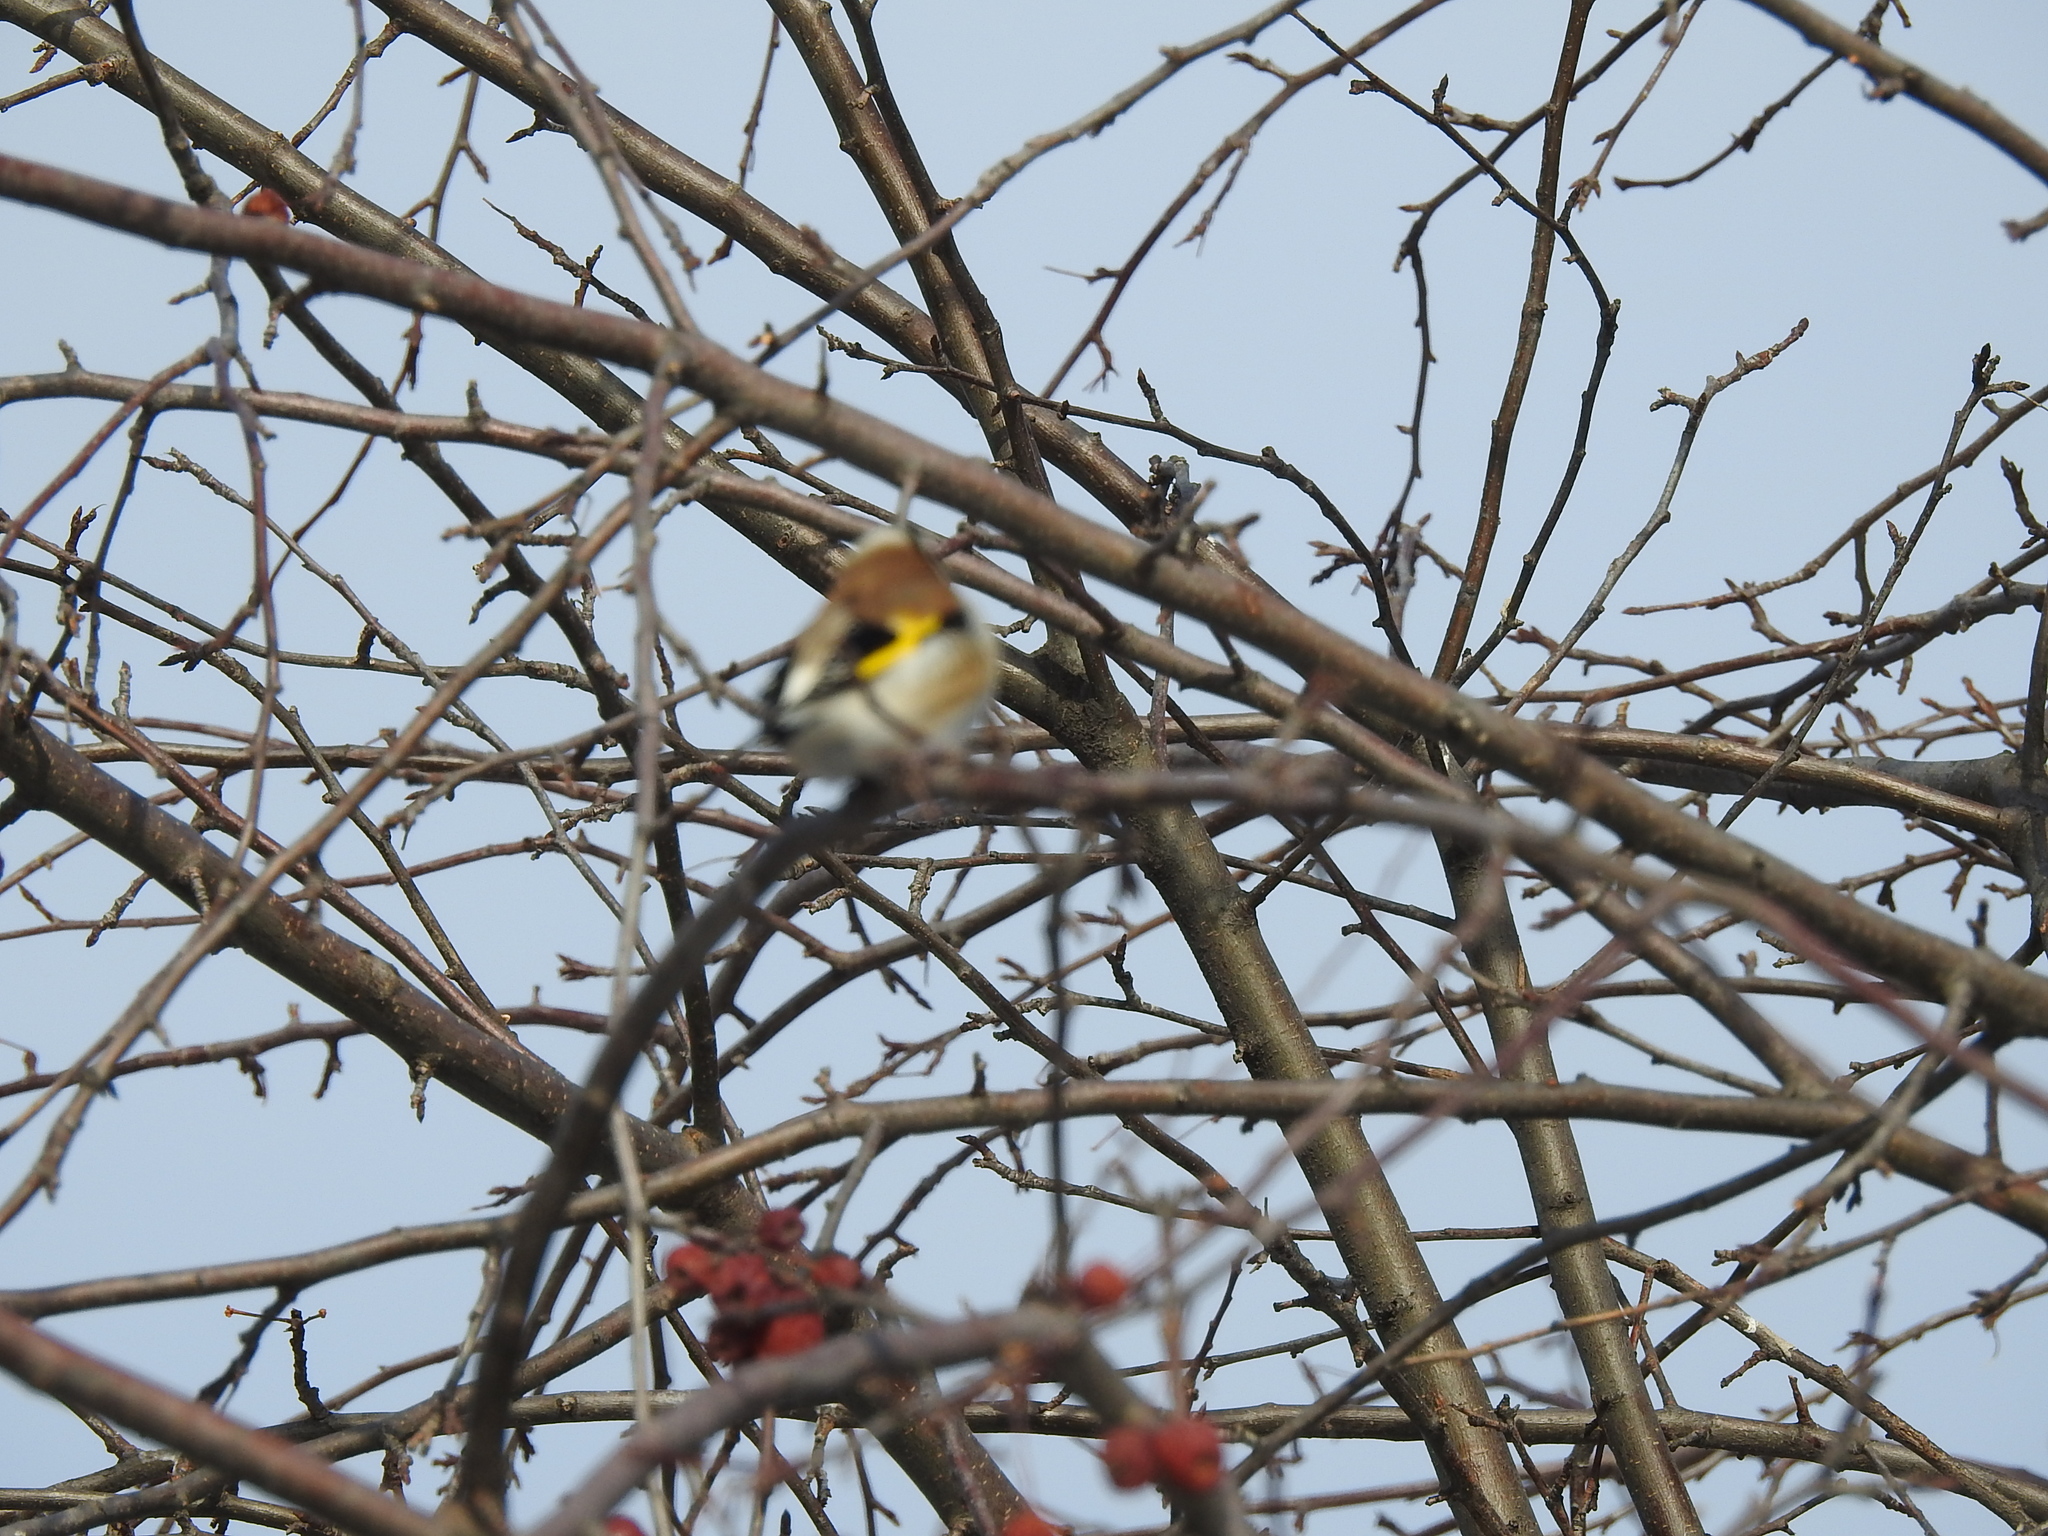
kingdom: Animalia
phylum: Chordata
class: Aves
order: Passeriformes
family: Fringillidae
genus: Carduelis
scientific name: Carduelis carduelis
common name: European goldfinch
